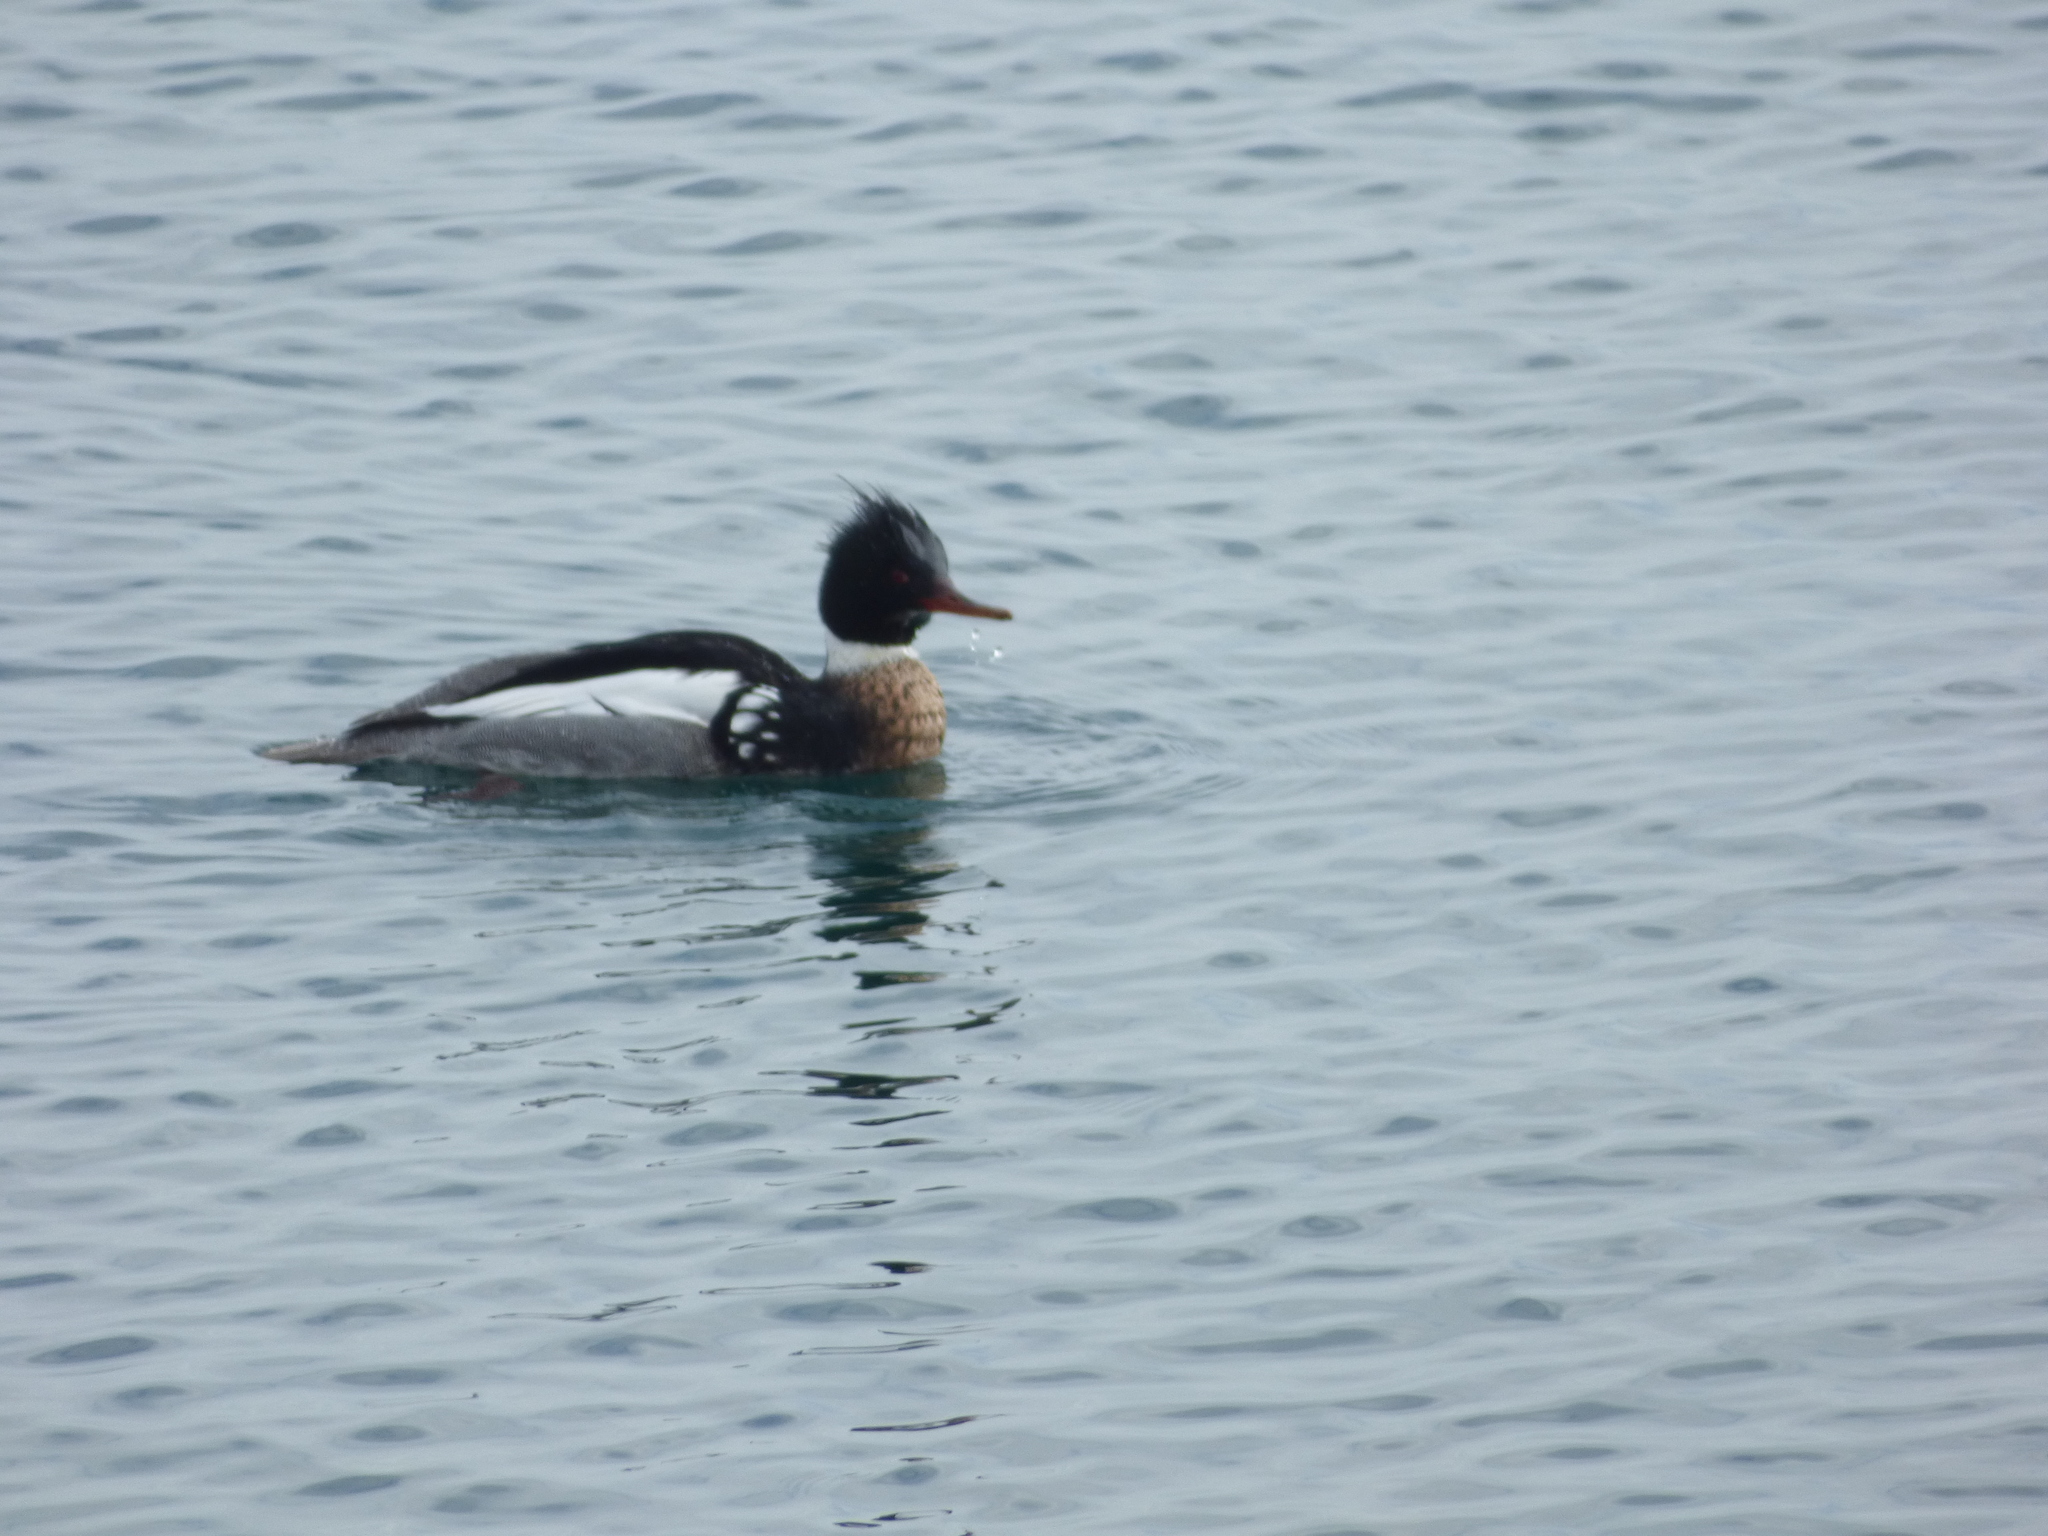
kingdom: Animalia
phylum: Chordata
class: Aves
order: Anseriformes
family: Anatidae
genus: Mergus
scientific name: Mergus serrator
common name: Red-breasted merganser
